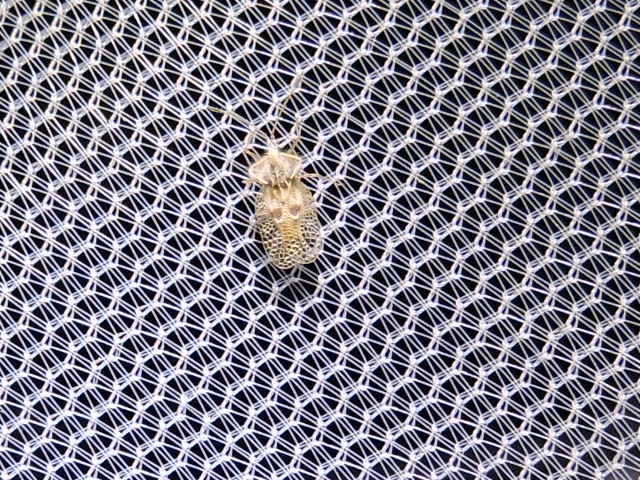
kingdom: Animalia
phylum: Arthropoda
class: Insecta
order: Hemiptera
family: Tingidae
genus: Gargaphia
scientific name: Gargaphia solani
